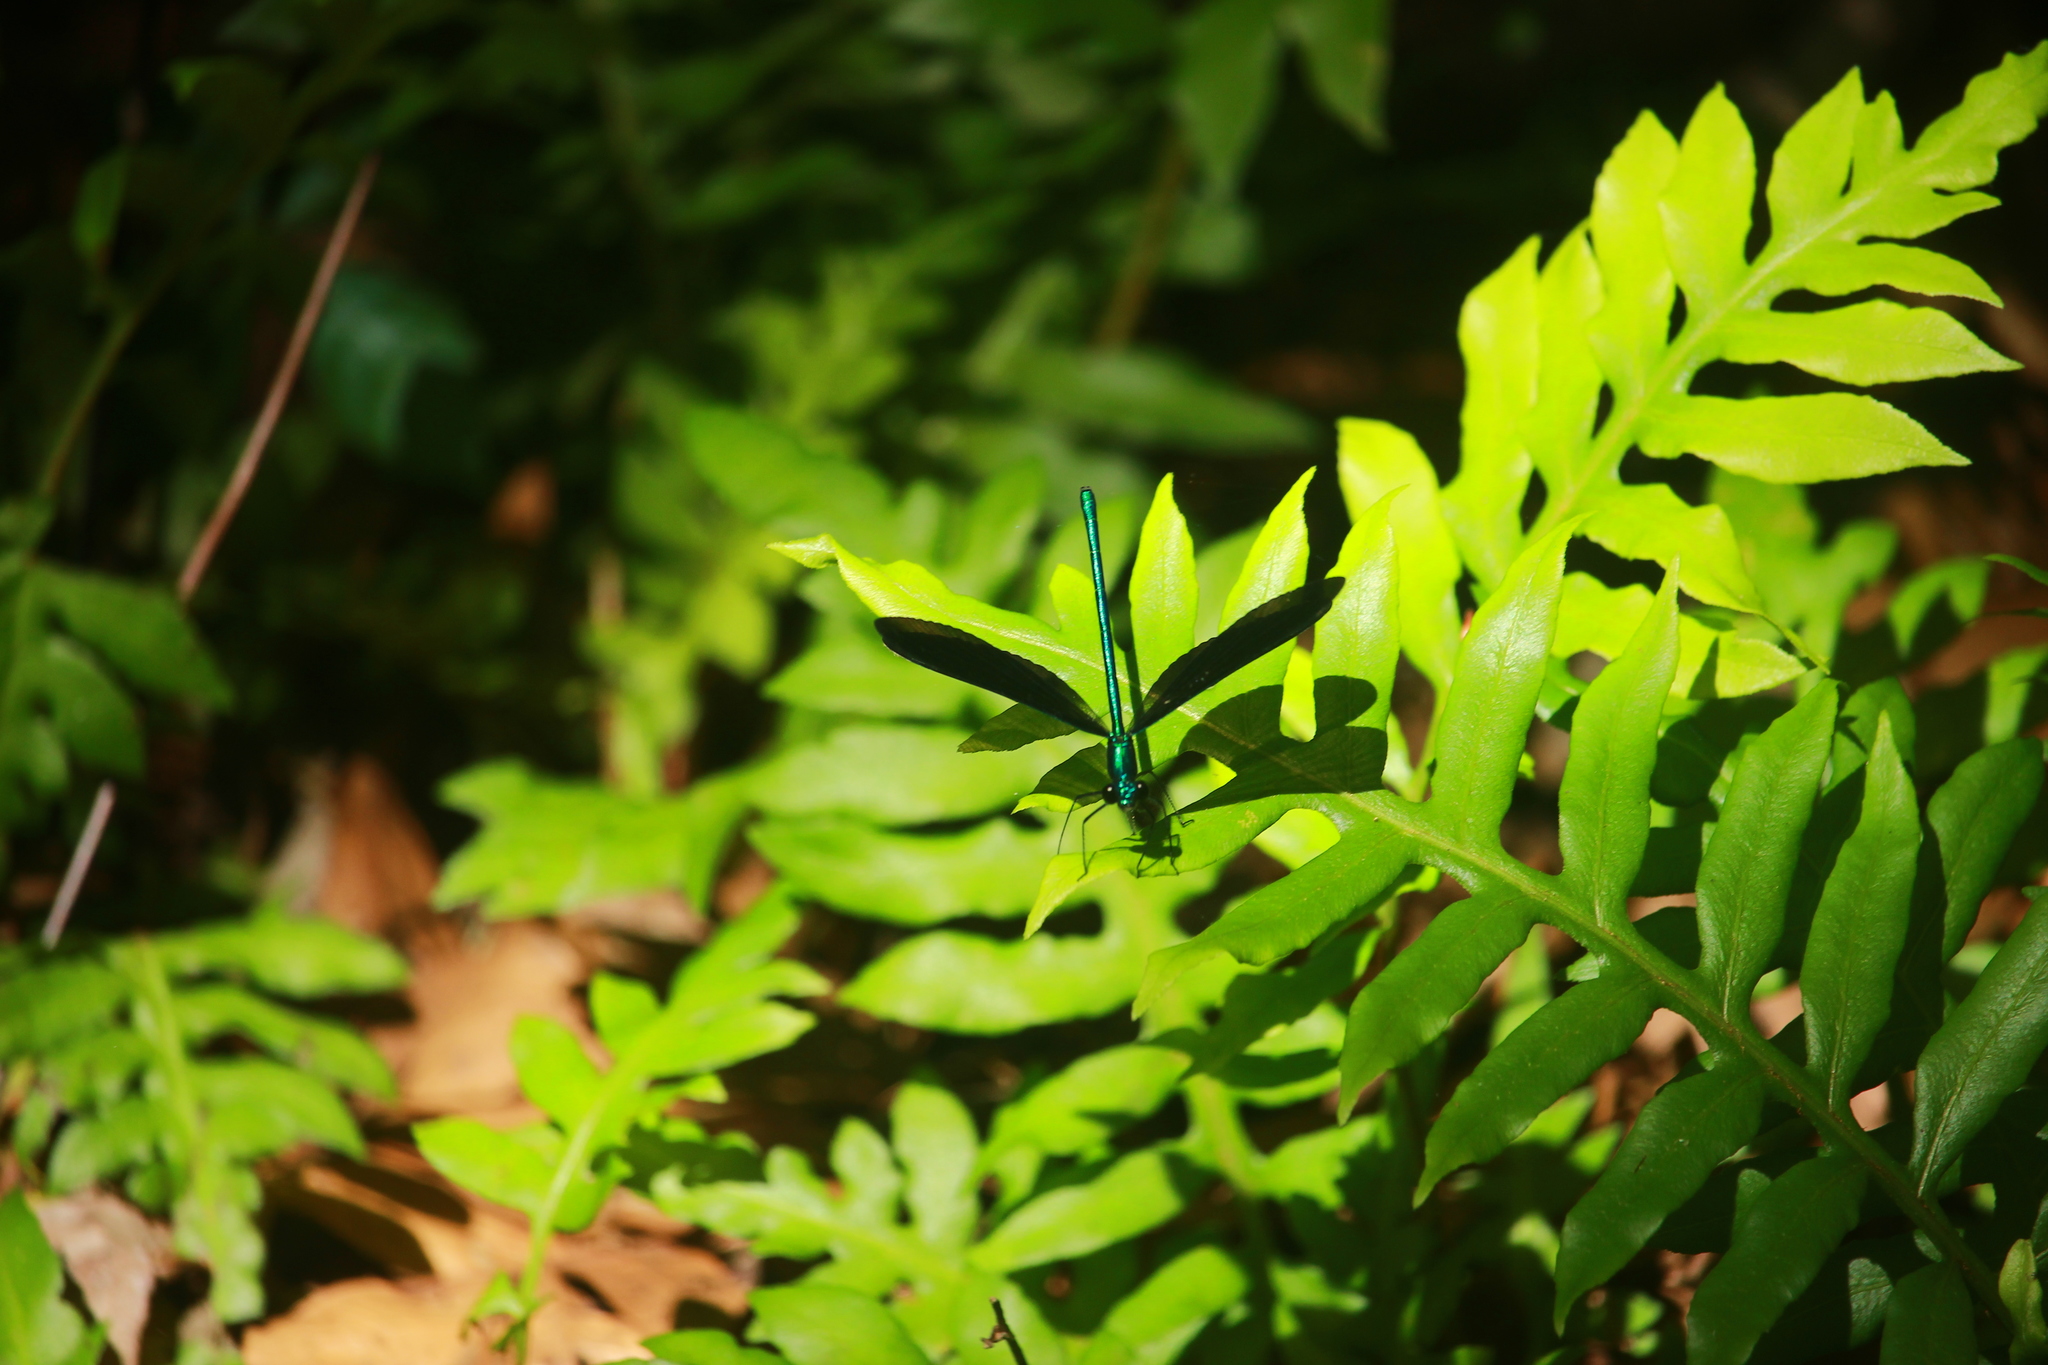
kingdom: Animalia
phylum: Arthropoda
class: Insecta
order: Odonata
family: Calopterygidae
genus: Calopteryx
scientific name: Calopteryx maculata
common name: Ebony jewelwing
